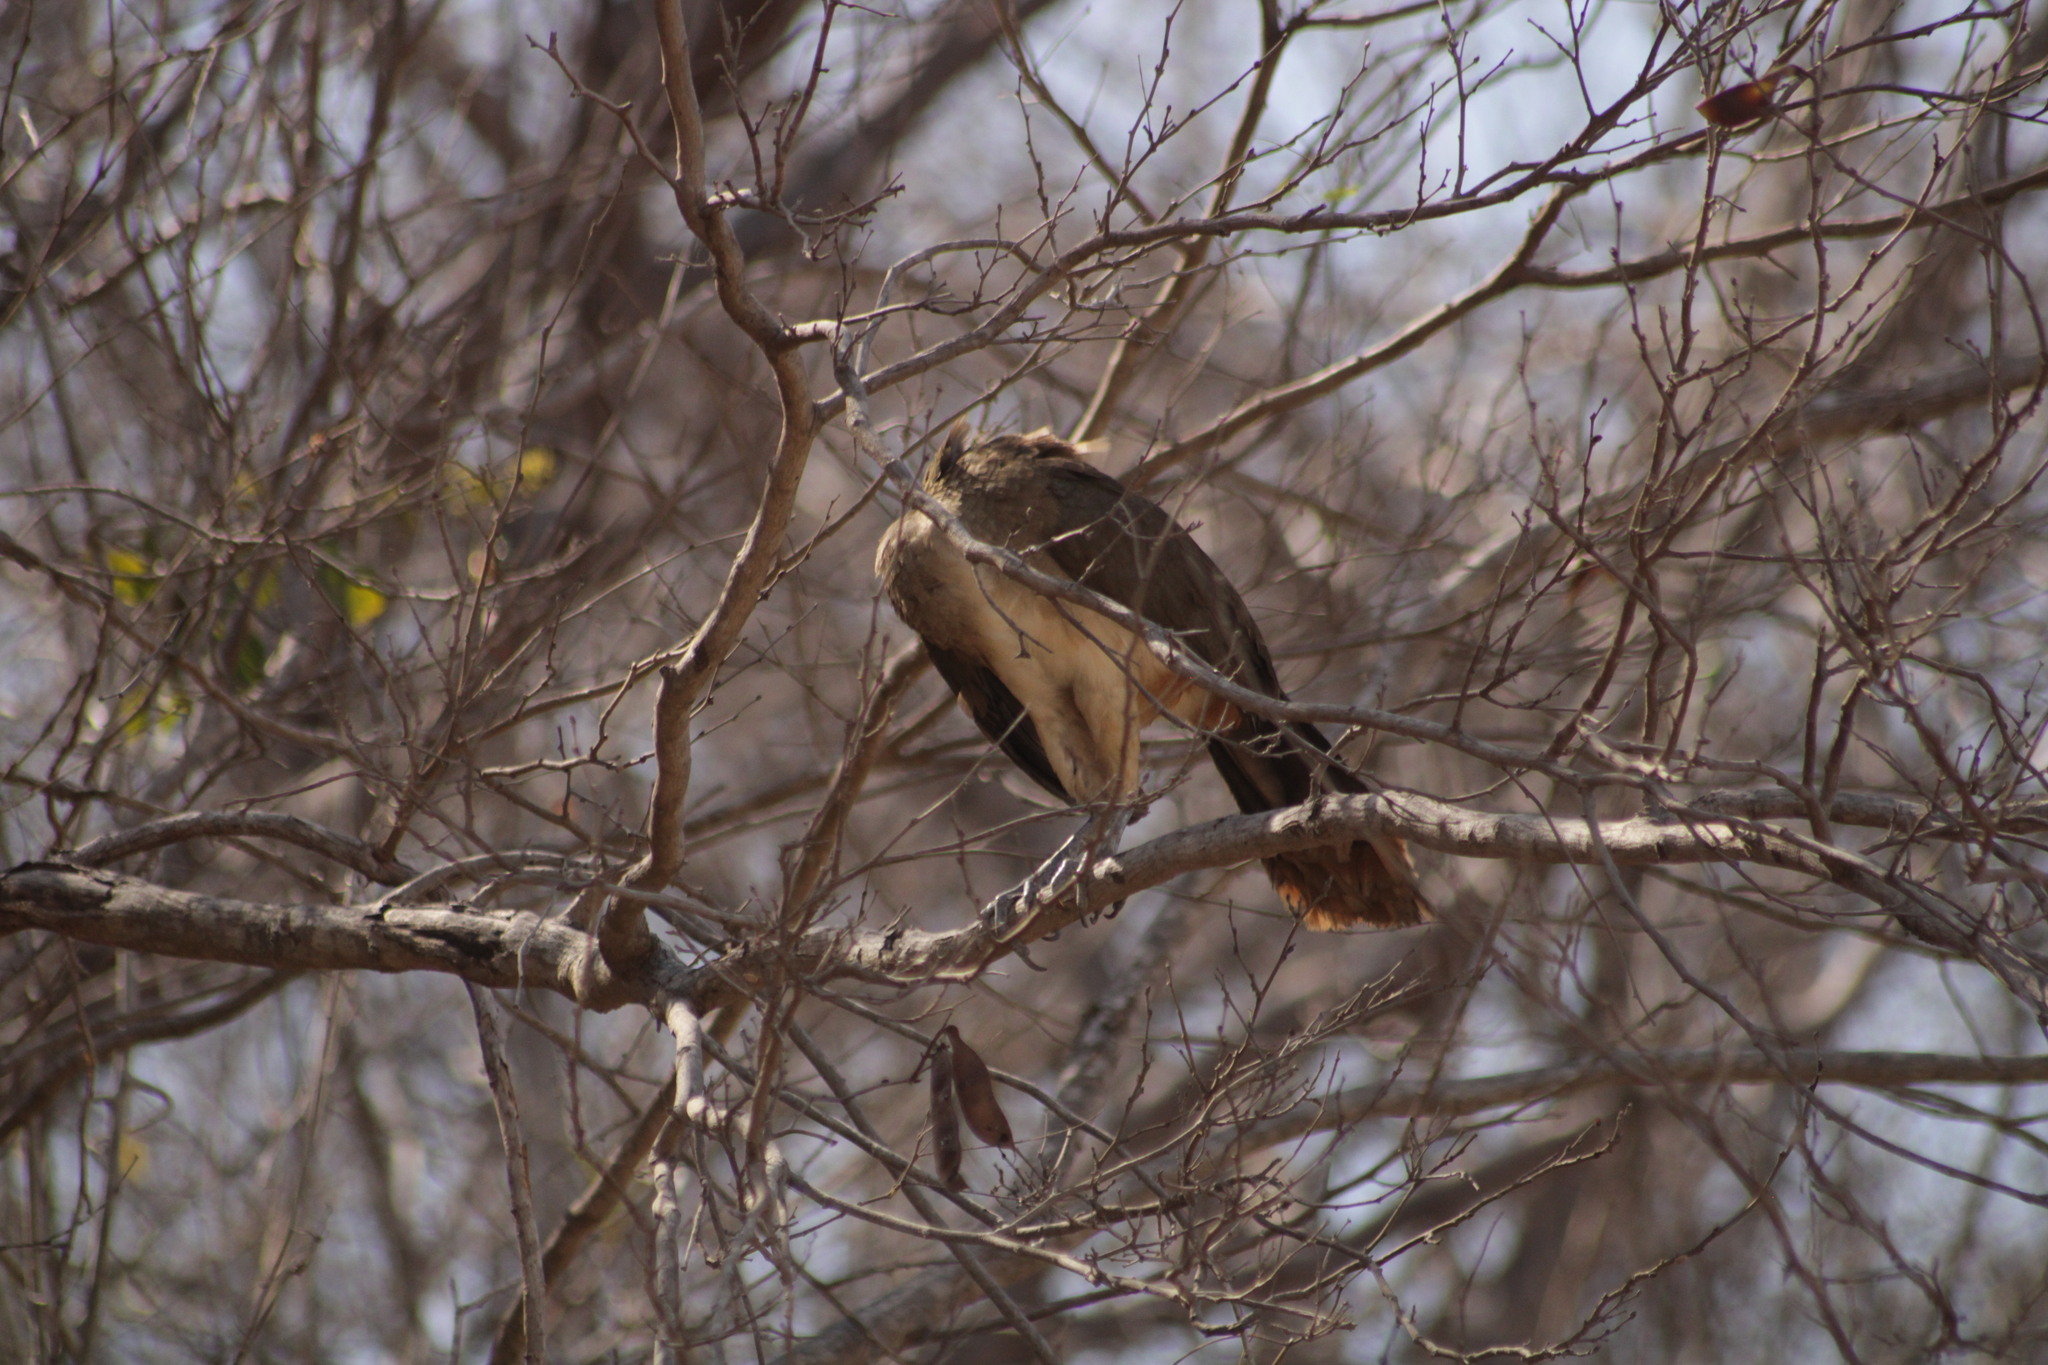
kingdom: Animalia
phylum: Chordata
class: Aves
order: Galliformes
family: Cracidae
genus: Ortalis
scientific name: Ortalis poliocephala
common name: West mexican chachalaca
